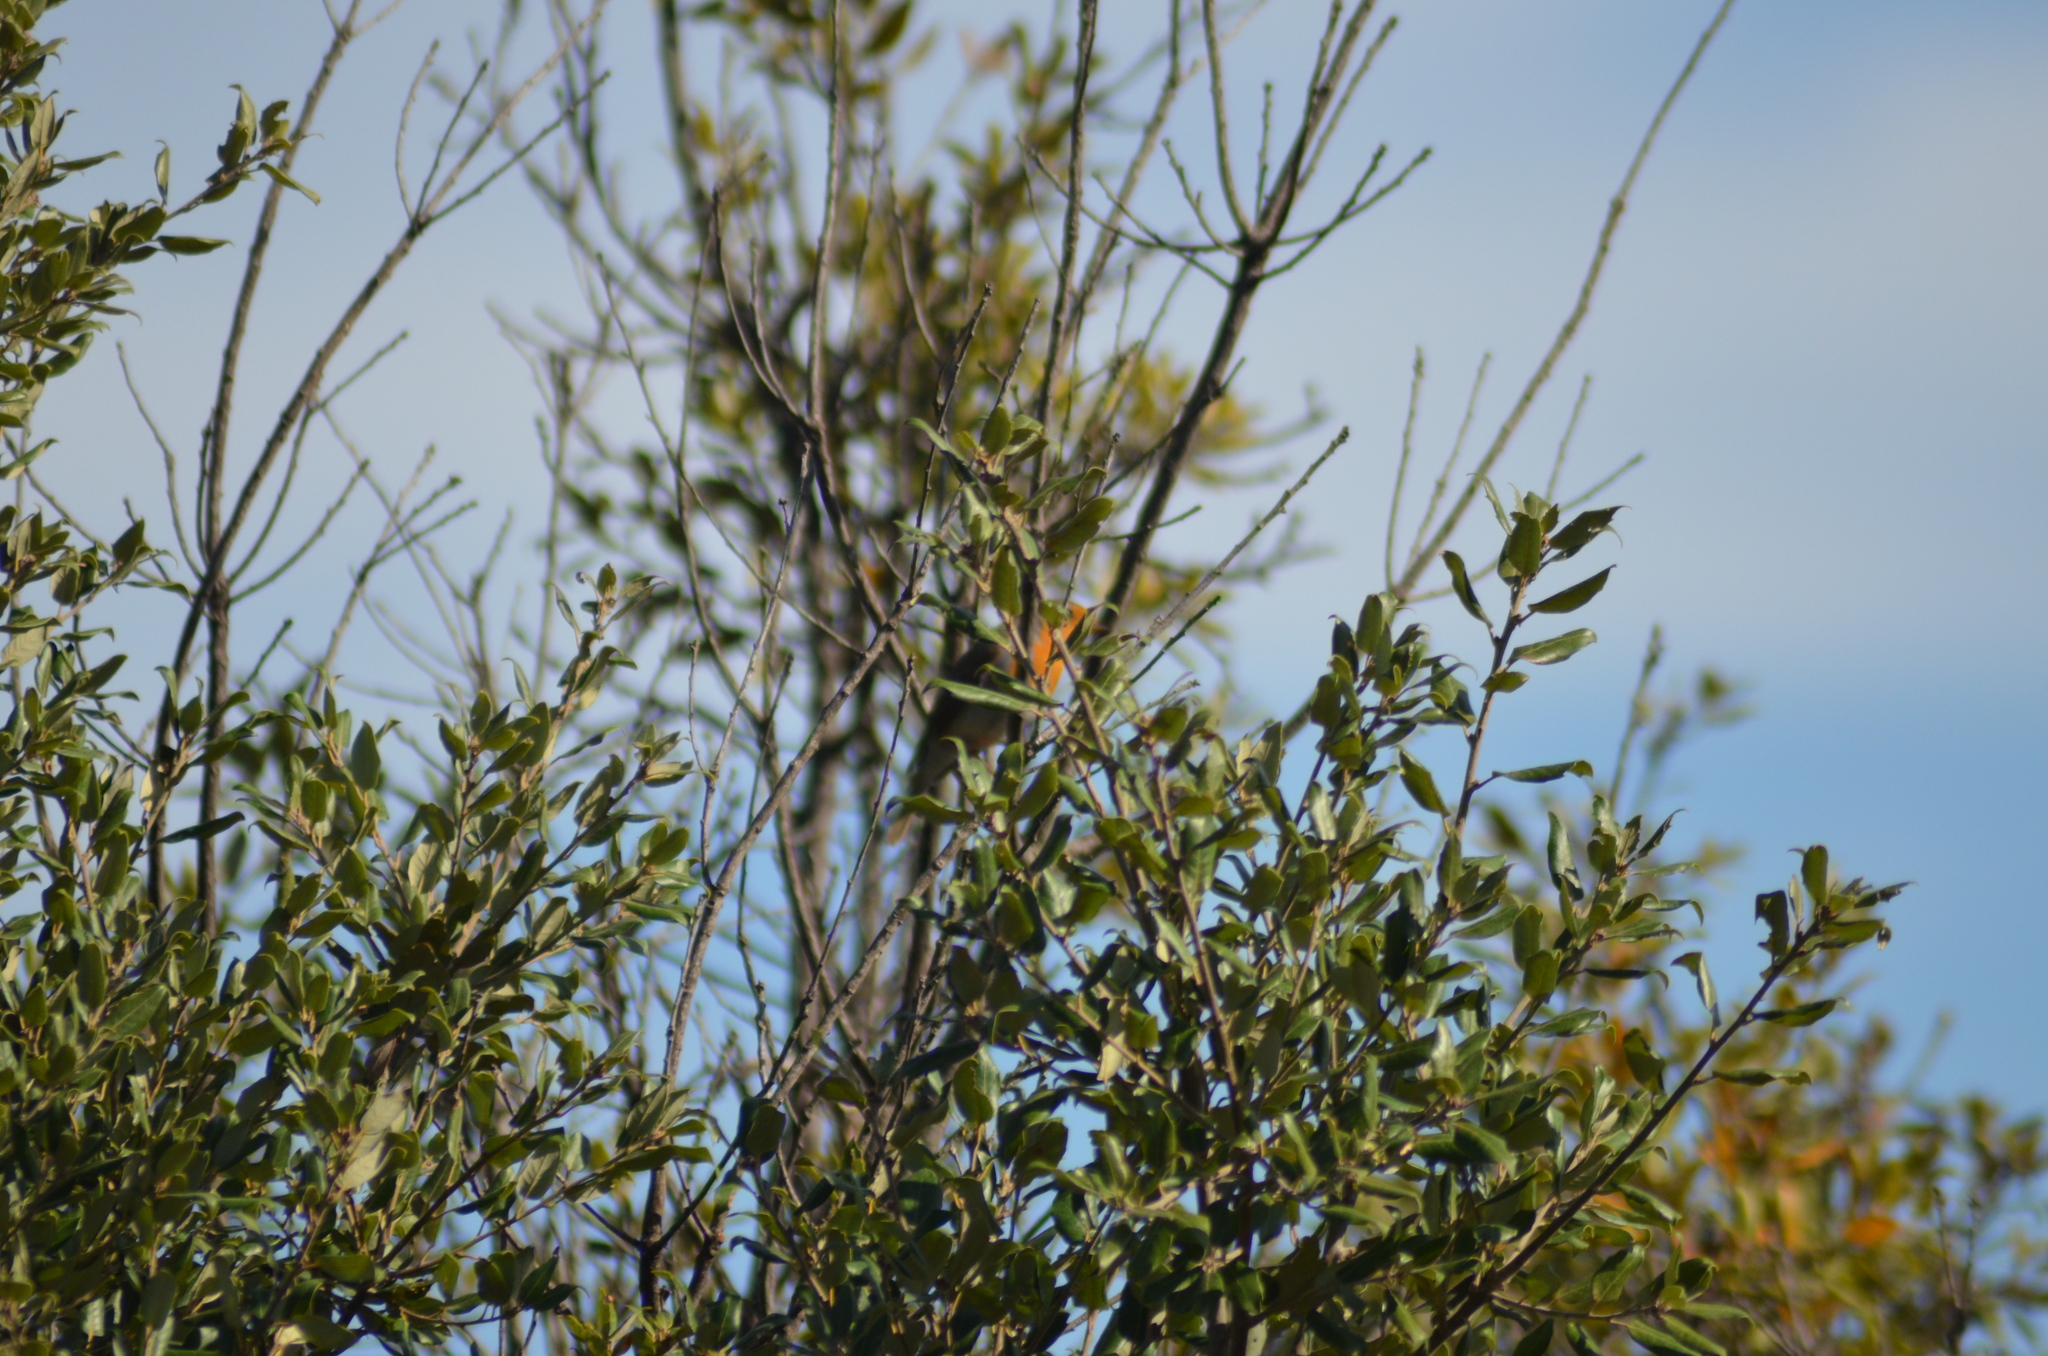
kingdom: Animalia
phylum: Chordata
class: Aves
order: Passeriformes
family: Muscicapidae
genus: Erithacus
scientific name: Erithacus rubecula
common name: European robin
